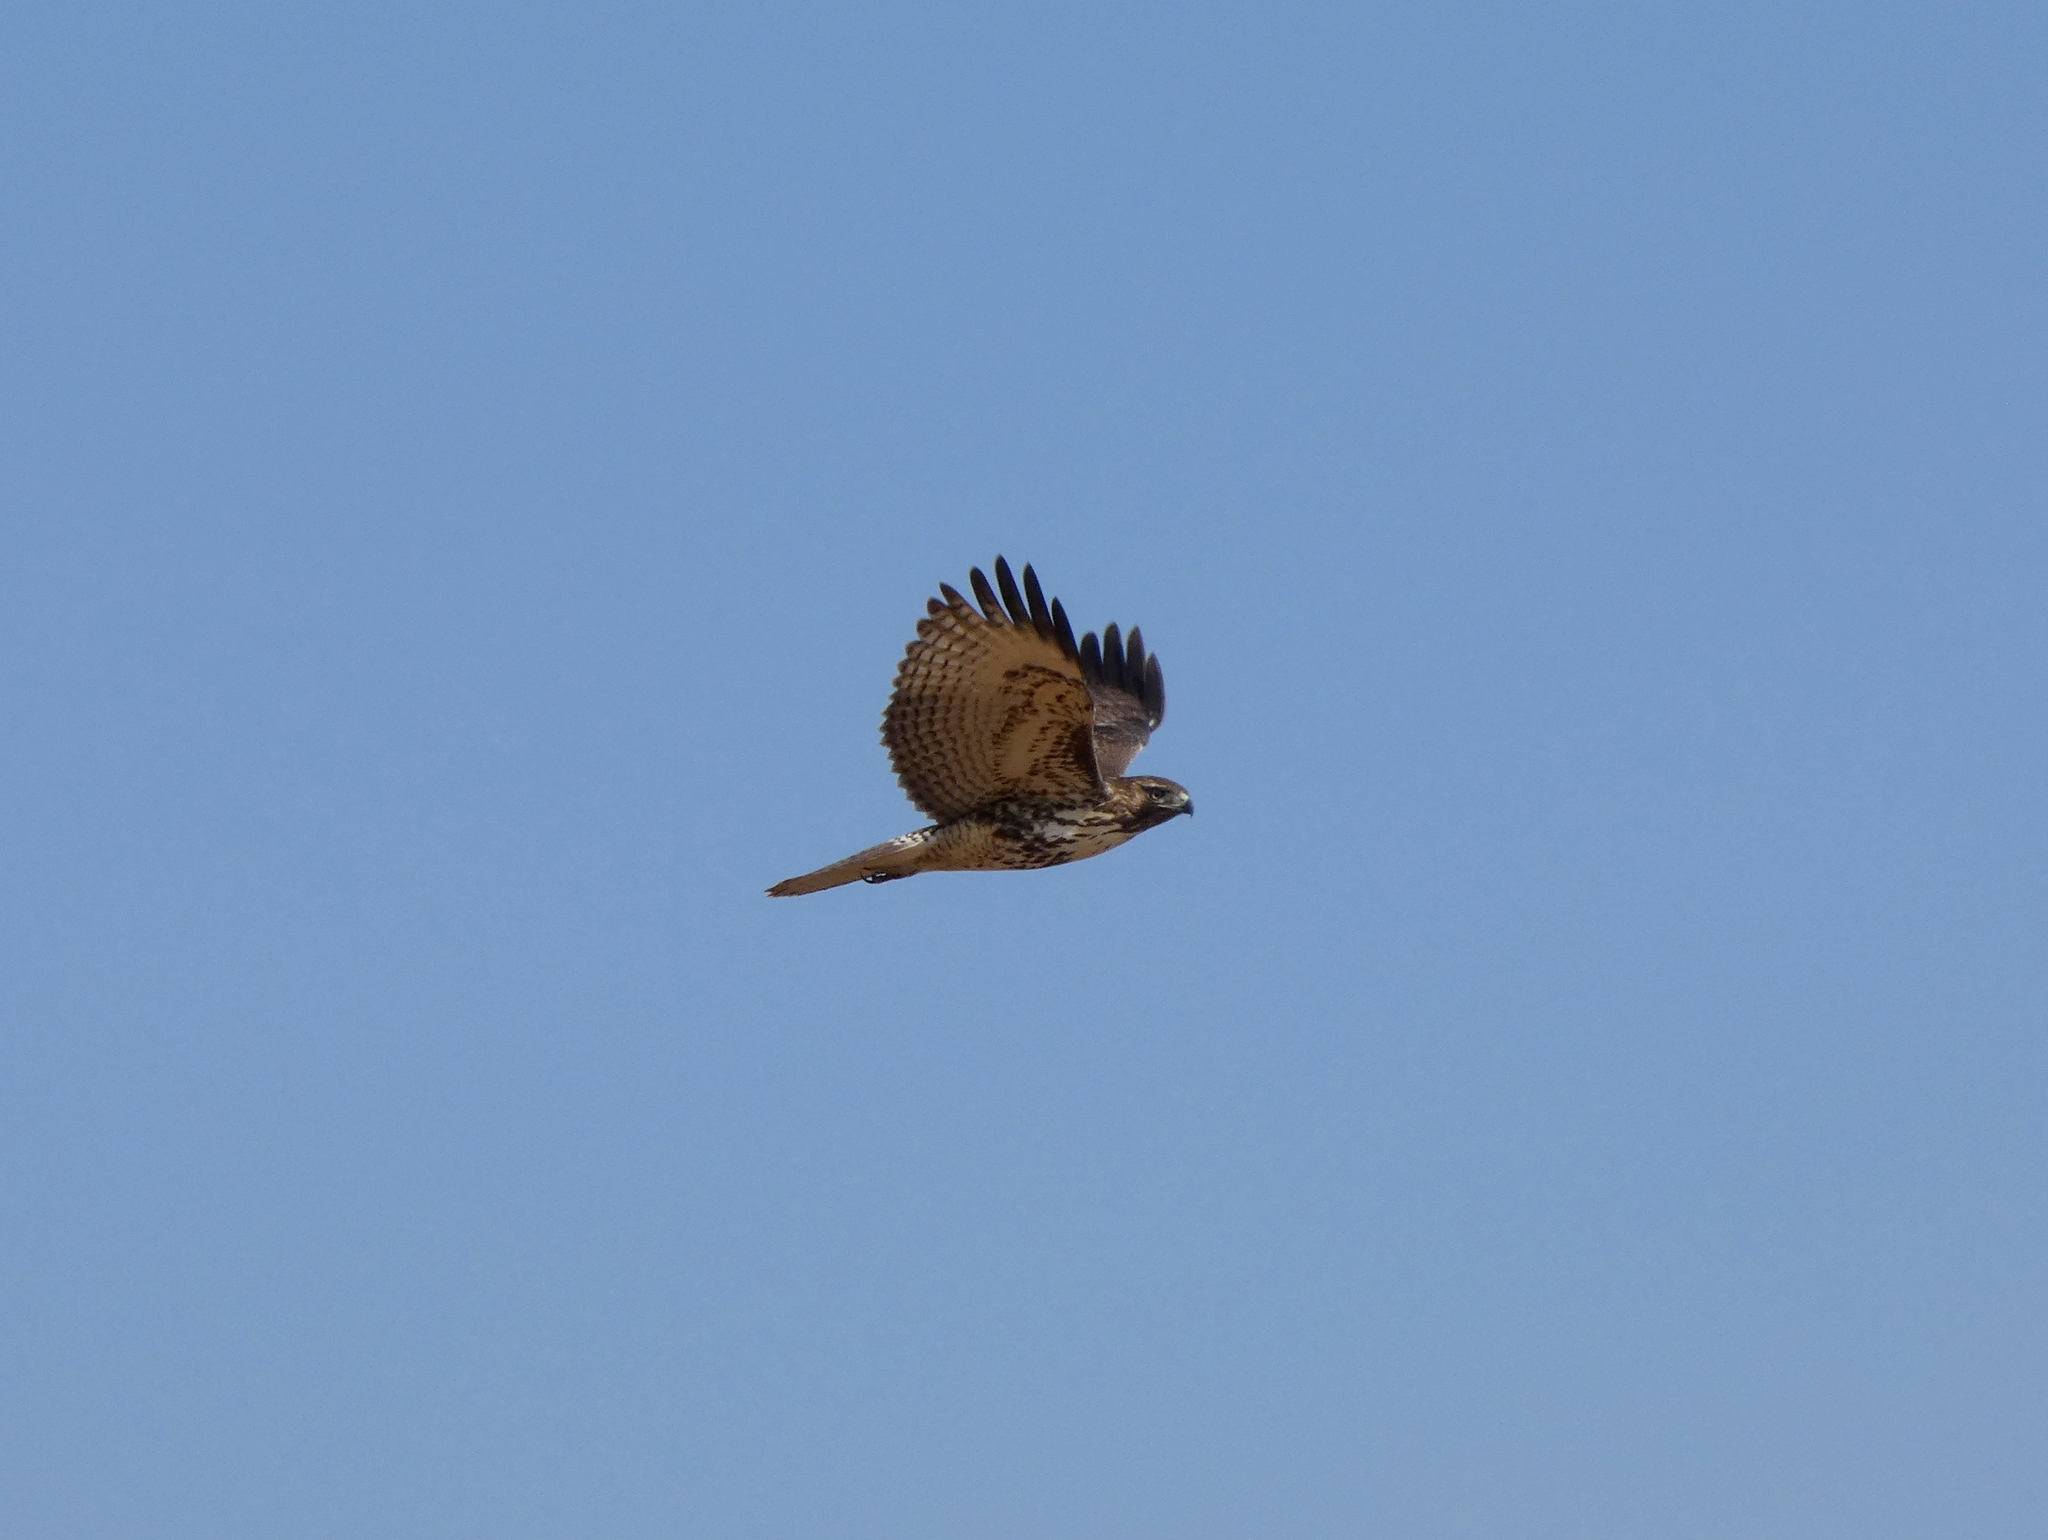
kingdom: Animalia
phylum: Chordata
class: Aves
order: Accipitriformes
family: Accipitridae
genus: Buteo
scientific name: Buteo jamaicensis
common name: Red-tailed hawk
